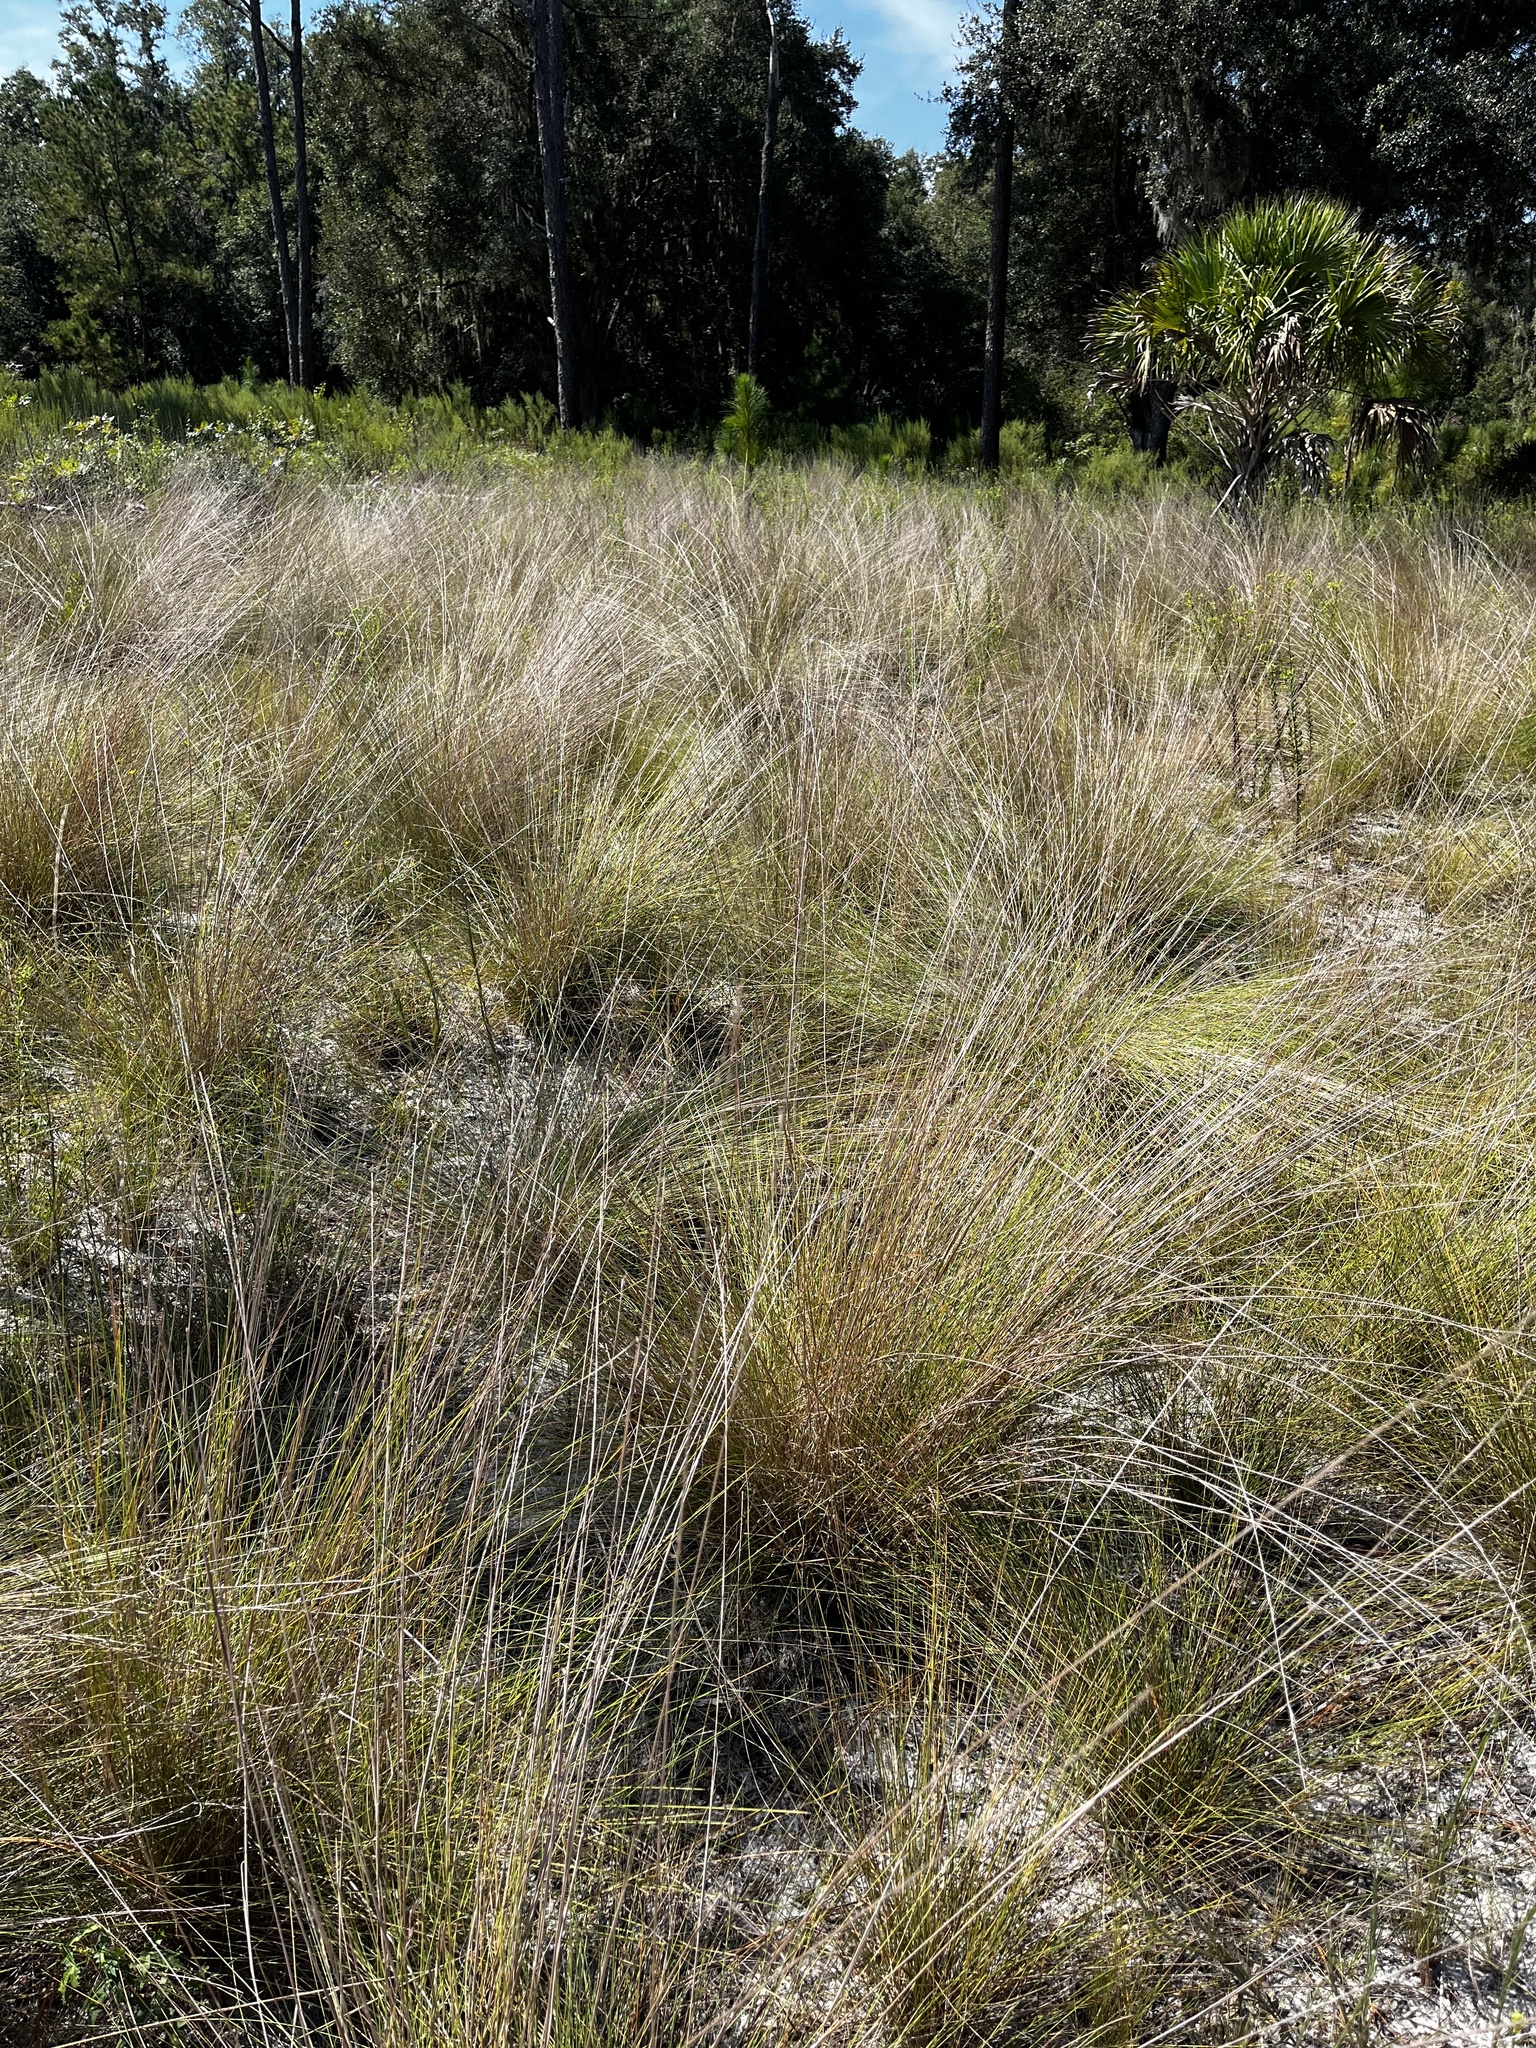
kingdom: Plantae
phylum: Tracheophyta
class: Liliopsida
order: Poales
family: Poaceae
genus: Aristida
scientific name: Aristida beyrichiana
